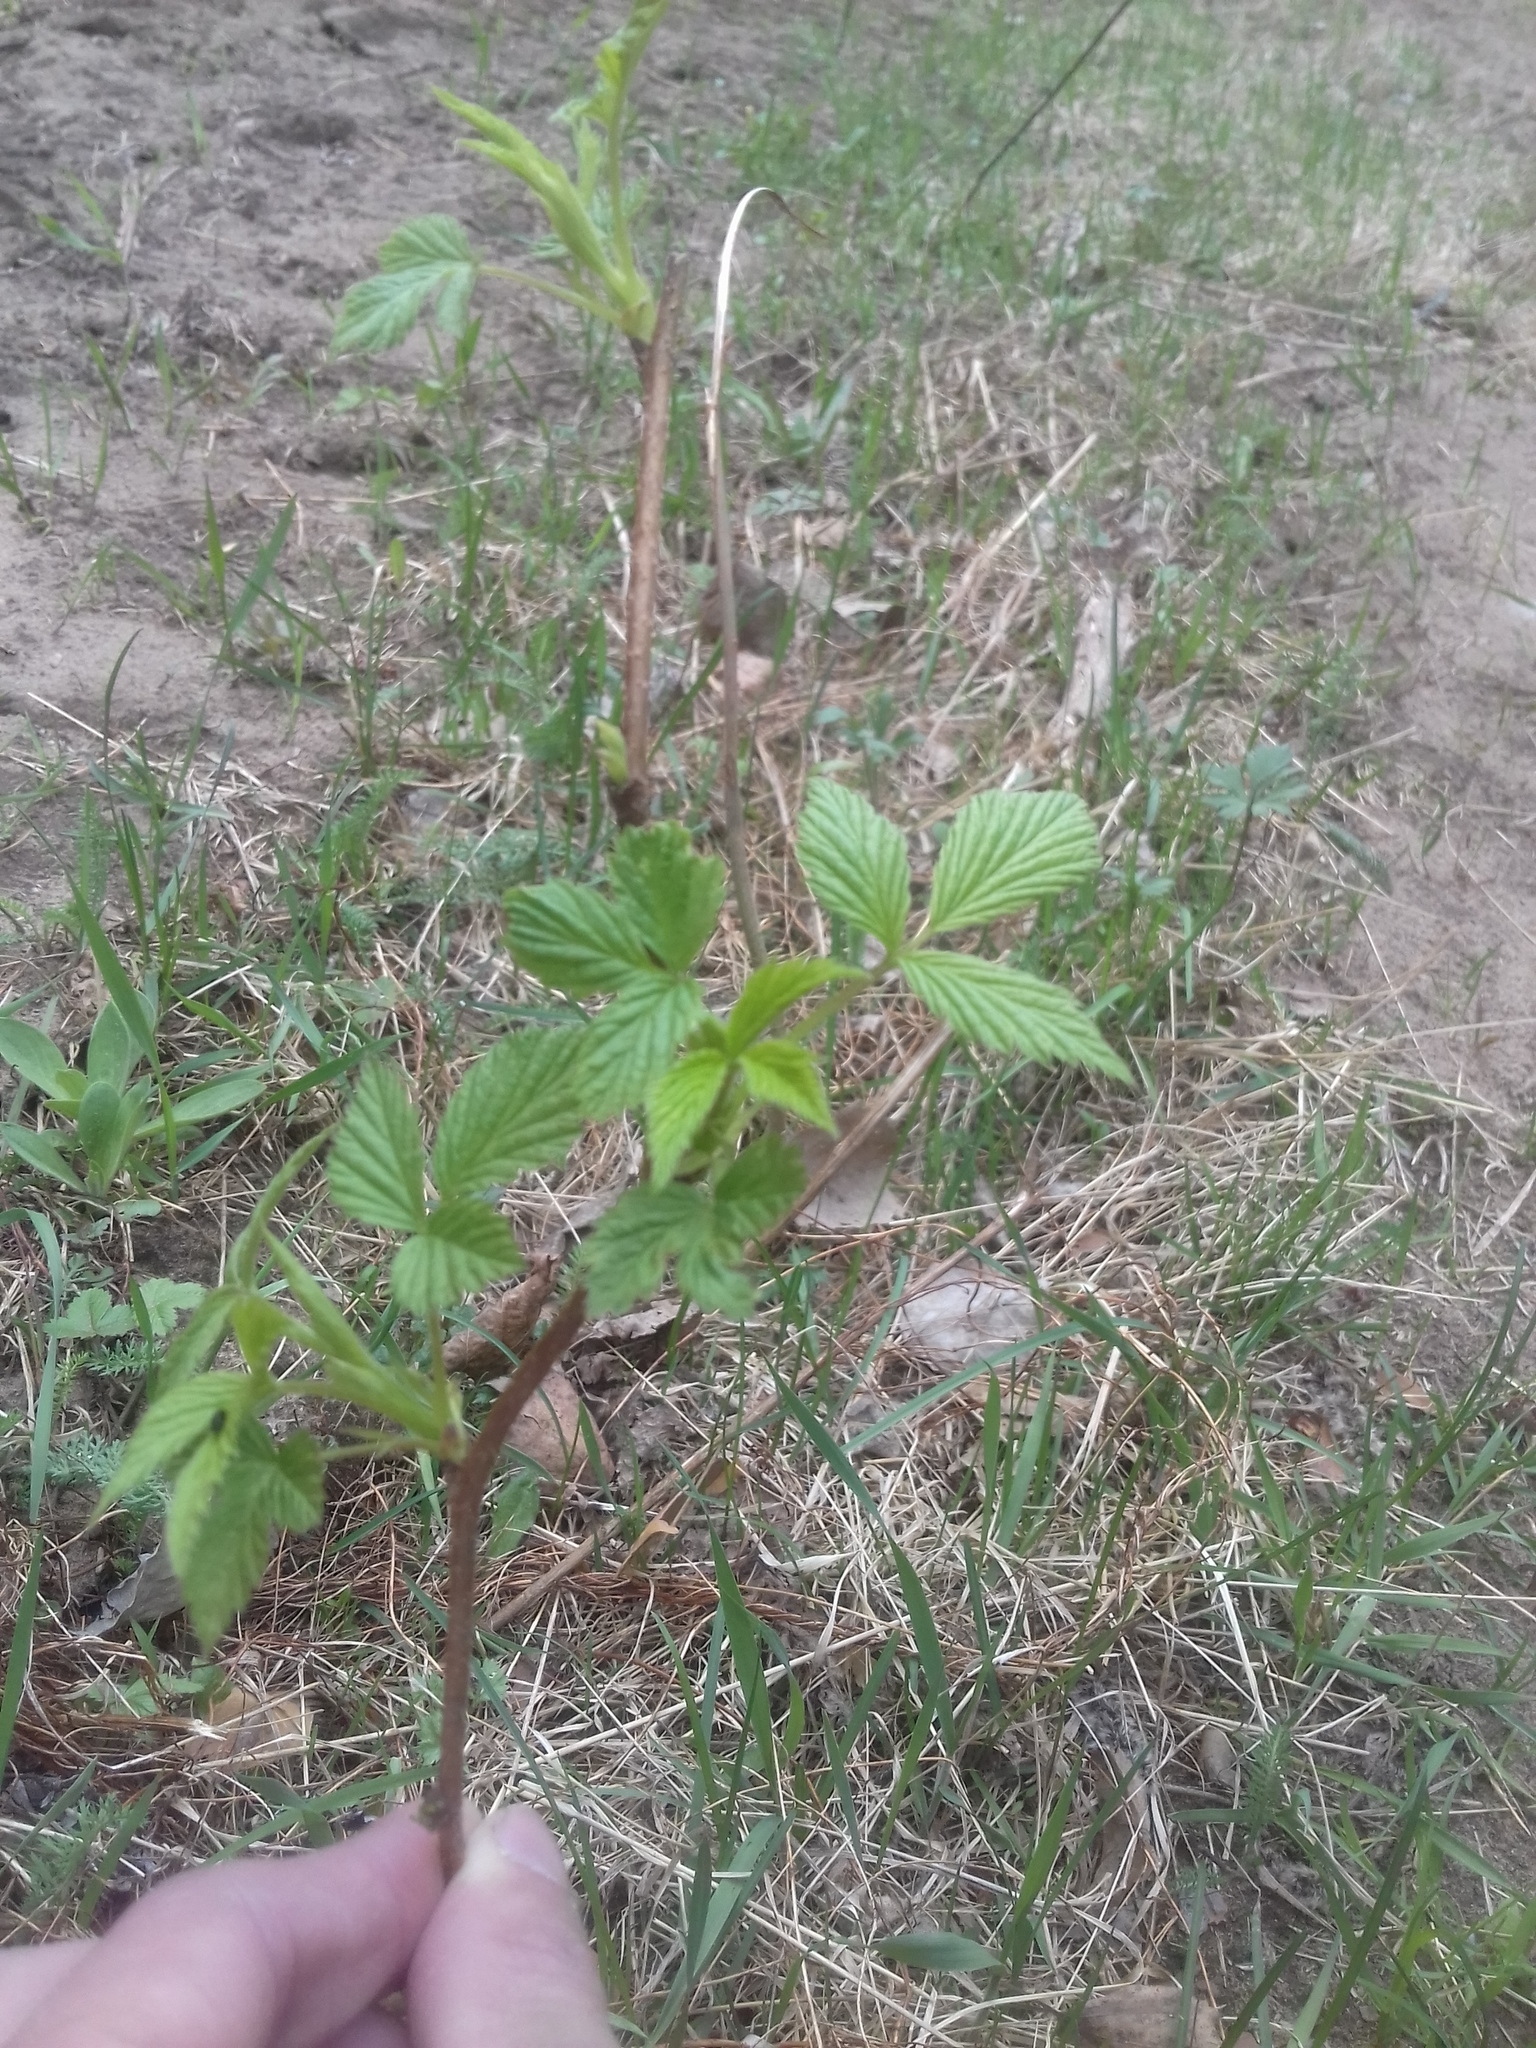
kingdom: Plantae
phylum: Tracheophyta
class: Magnoliopsida
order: Rosales
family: Rosaceae
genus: Rubus
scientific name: Rubus idaeus
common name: Raspberry
